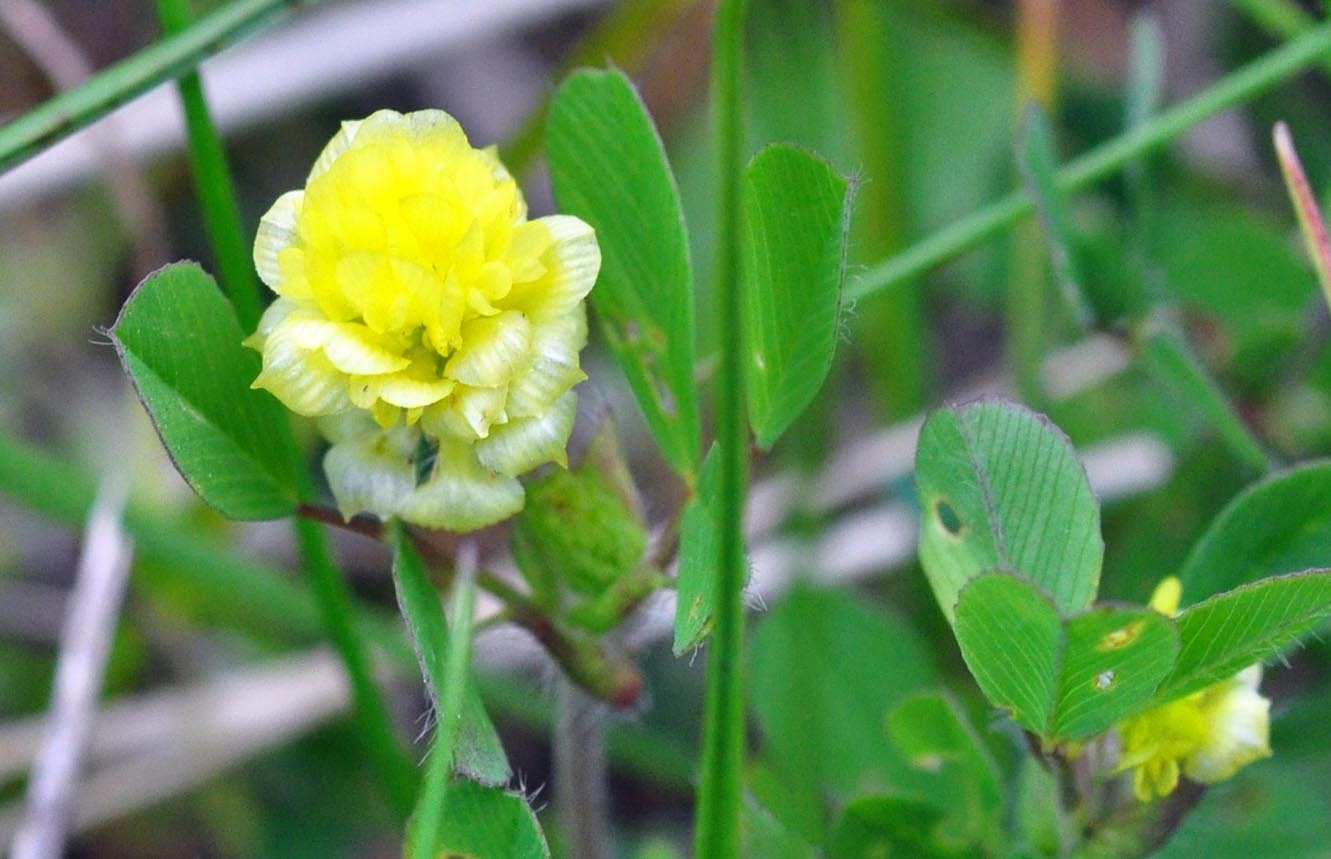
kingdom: Plantae
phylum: Tracheophyta
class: Magnoliopsida
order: Fabales
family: Fabaceae
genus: Trifolium
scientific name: Trifolium campestre
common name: Field clover
